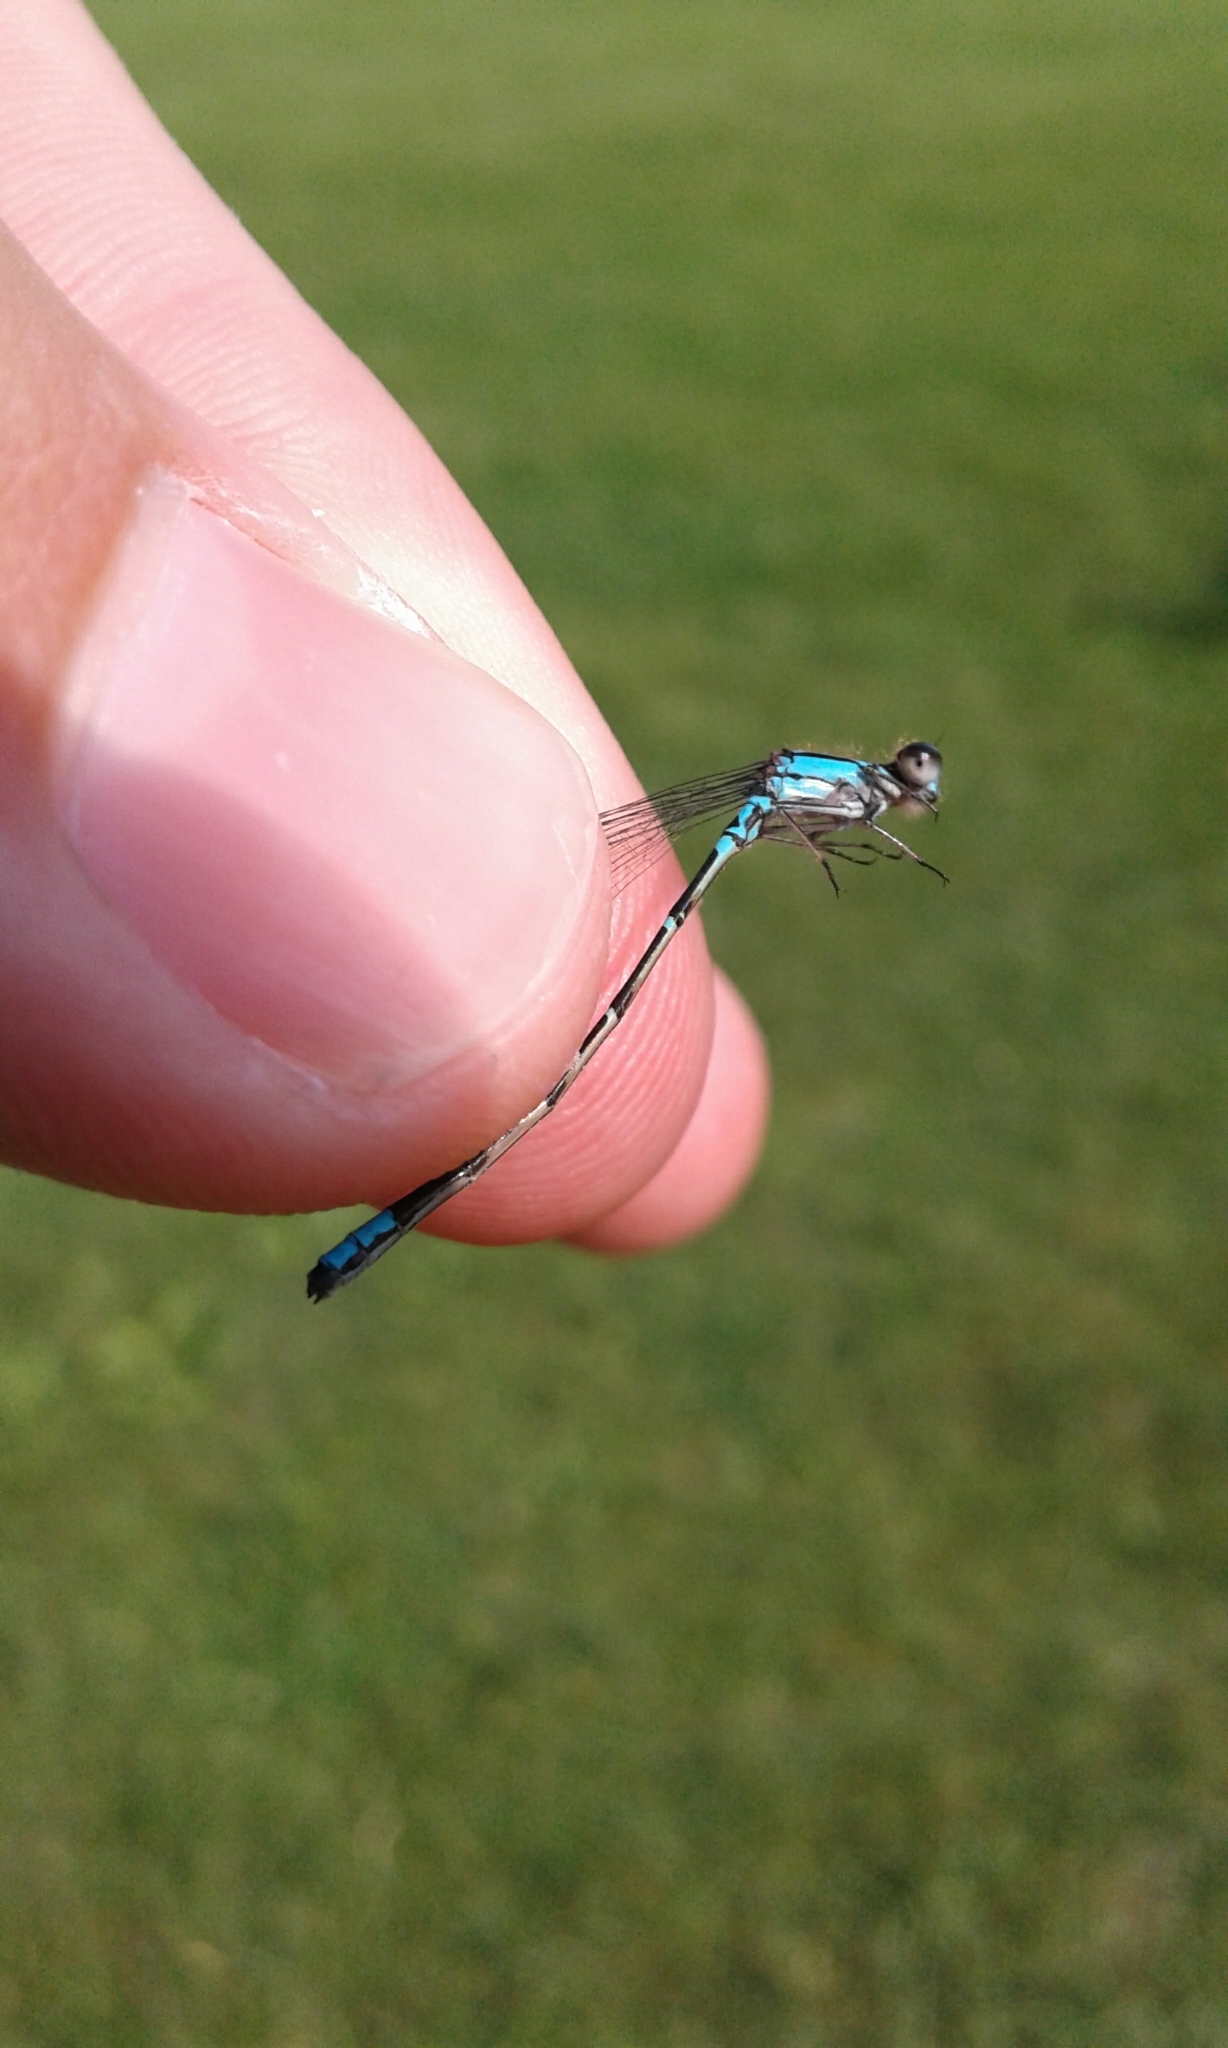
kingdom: Animalia
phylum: Arthropoda
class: Insecta
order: Odonata
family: Coenagrionidae
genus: Enallagma
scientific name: Enallagma geminatum
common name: Skimming bluet
